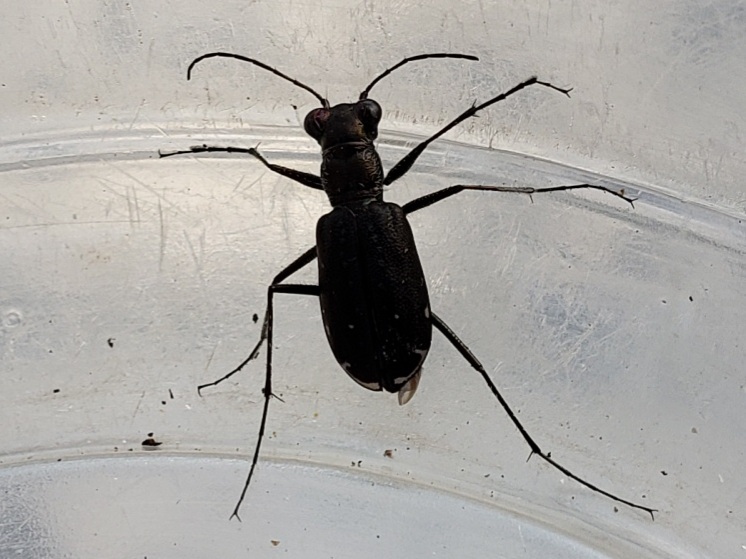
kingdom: Animalia
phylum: Arthropoda
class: Insecta
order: Coleoptera
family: Carabidae
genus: Cicindela
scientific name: Cicindela punctulata
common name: Punctured tiger beetle
